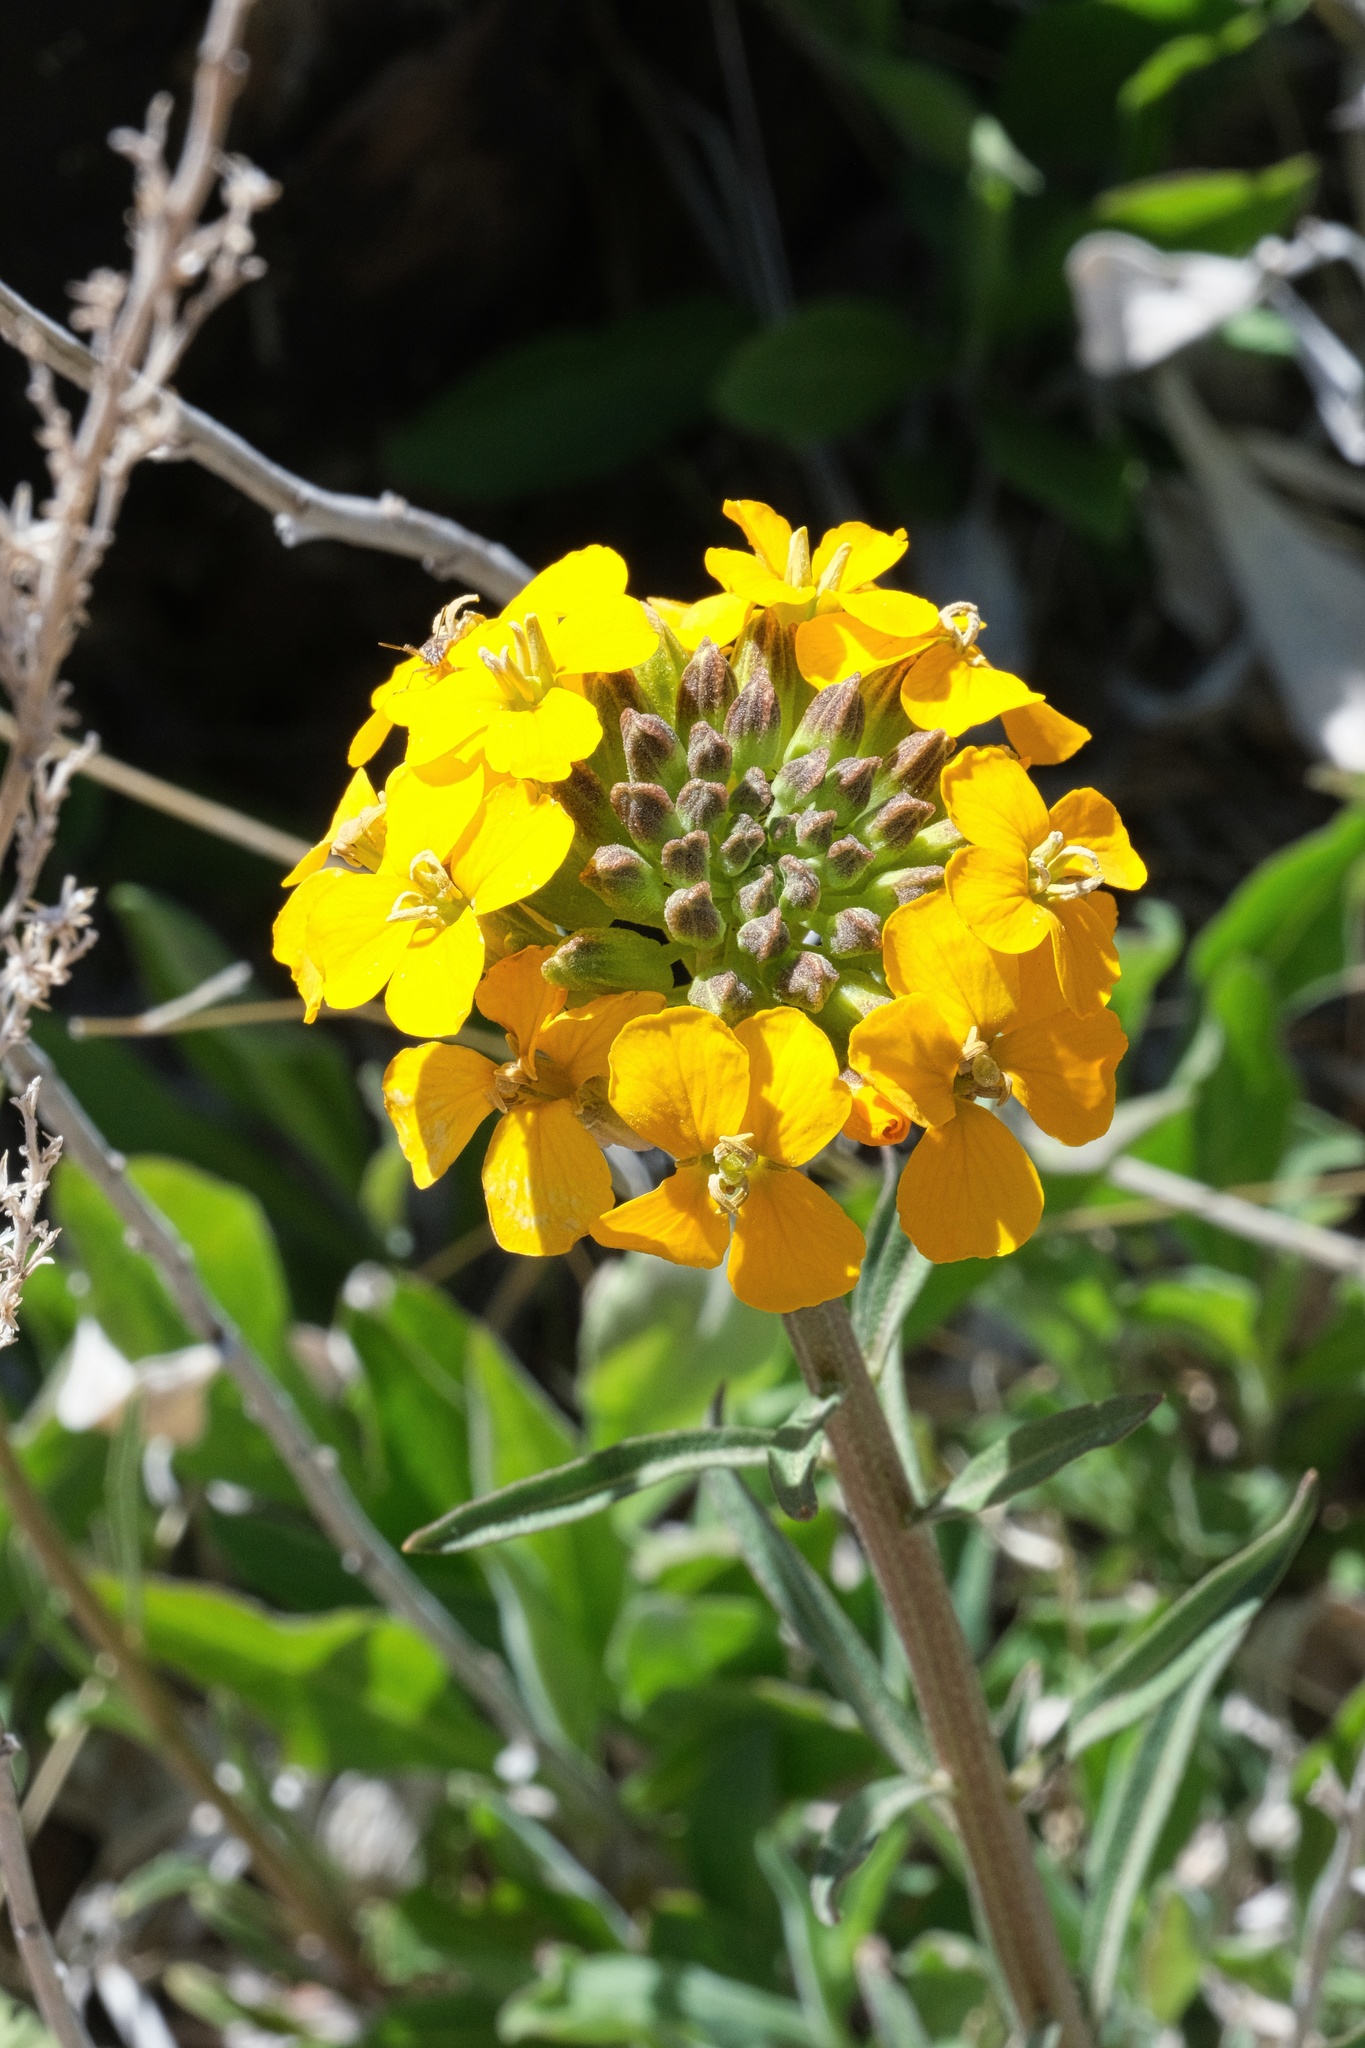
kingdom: Plantae
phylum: Tracheophyta
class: Magnoliopsida
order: Brassicales
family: Brassicaceae
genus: Erysimum
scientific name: Erysimum capitatum
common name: Western wallflower
